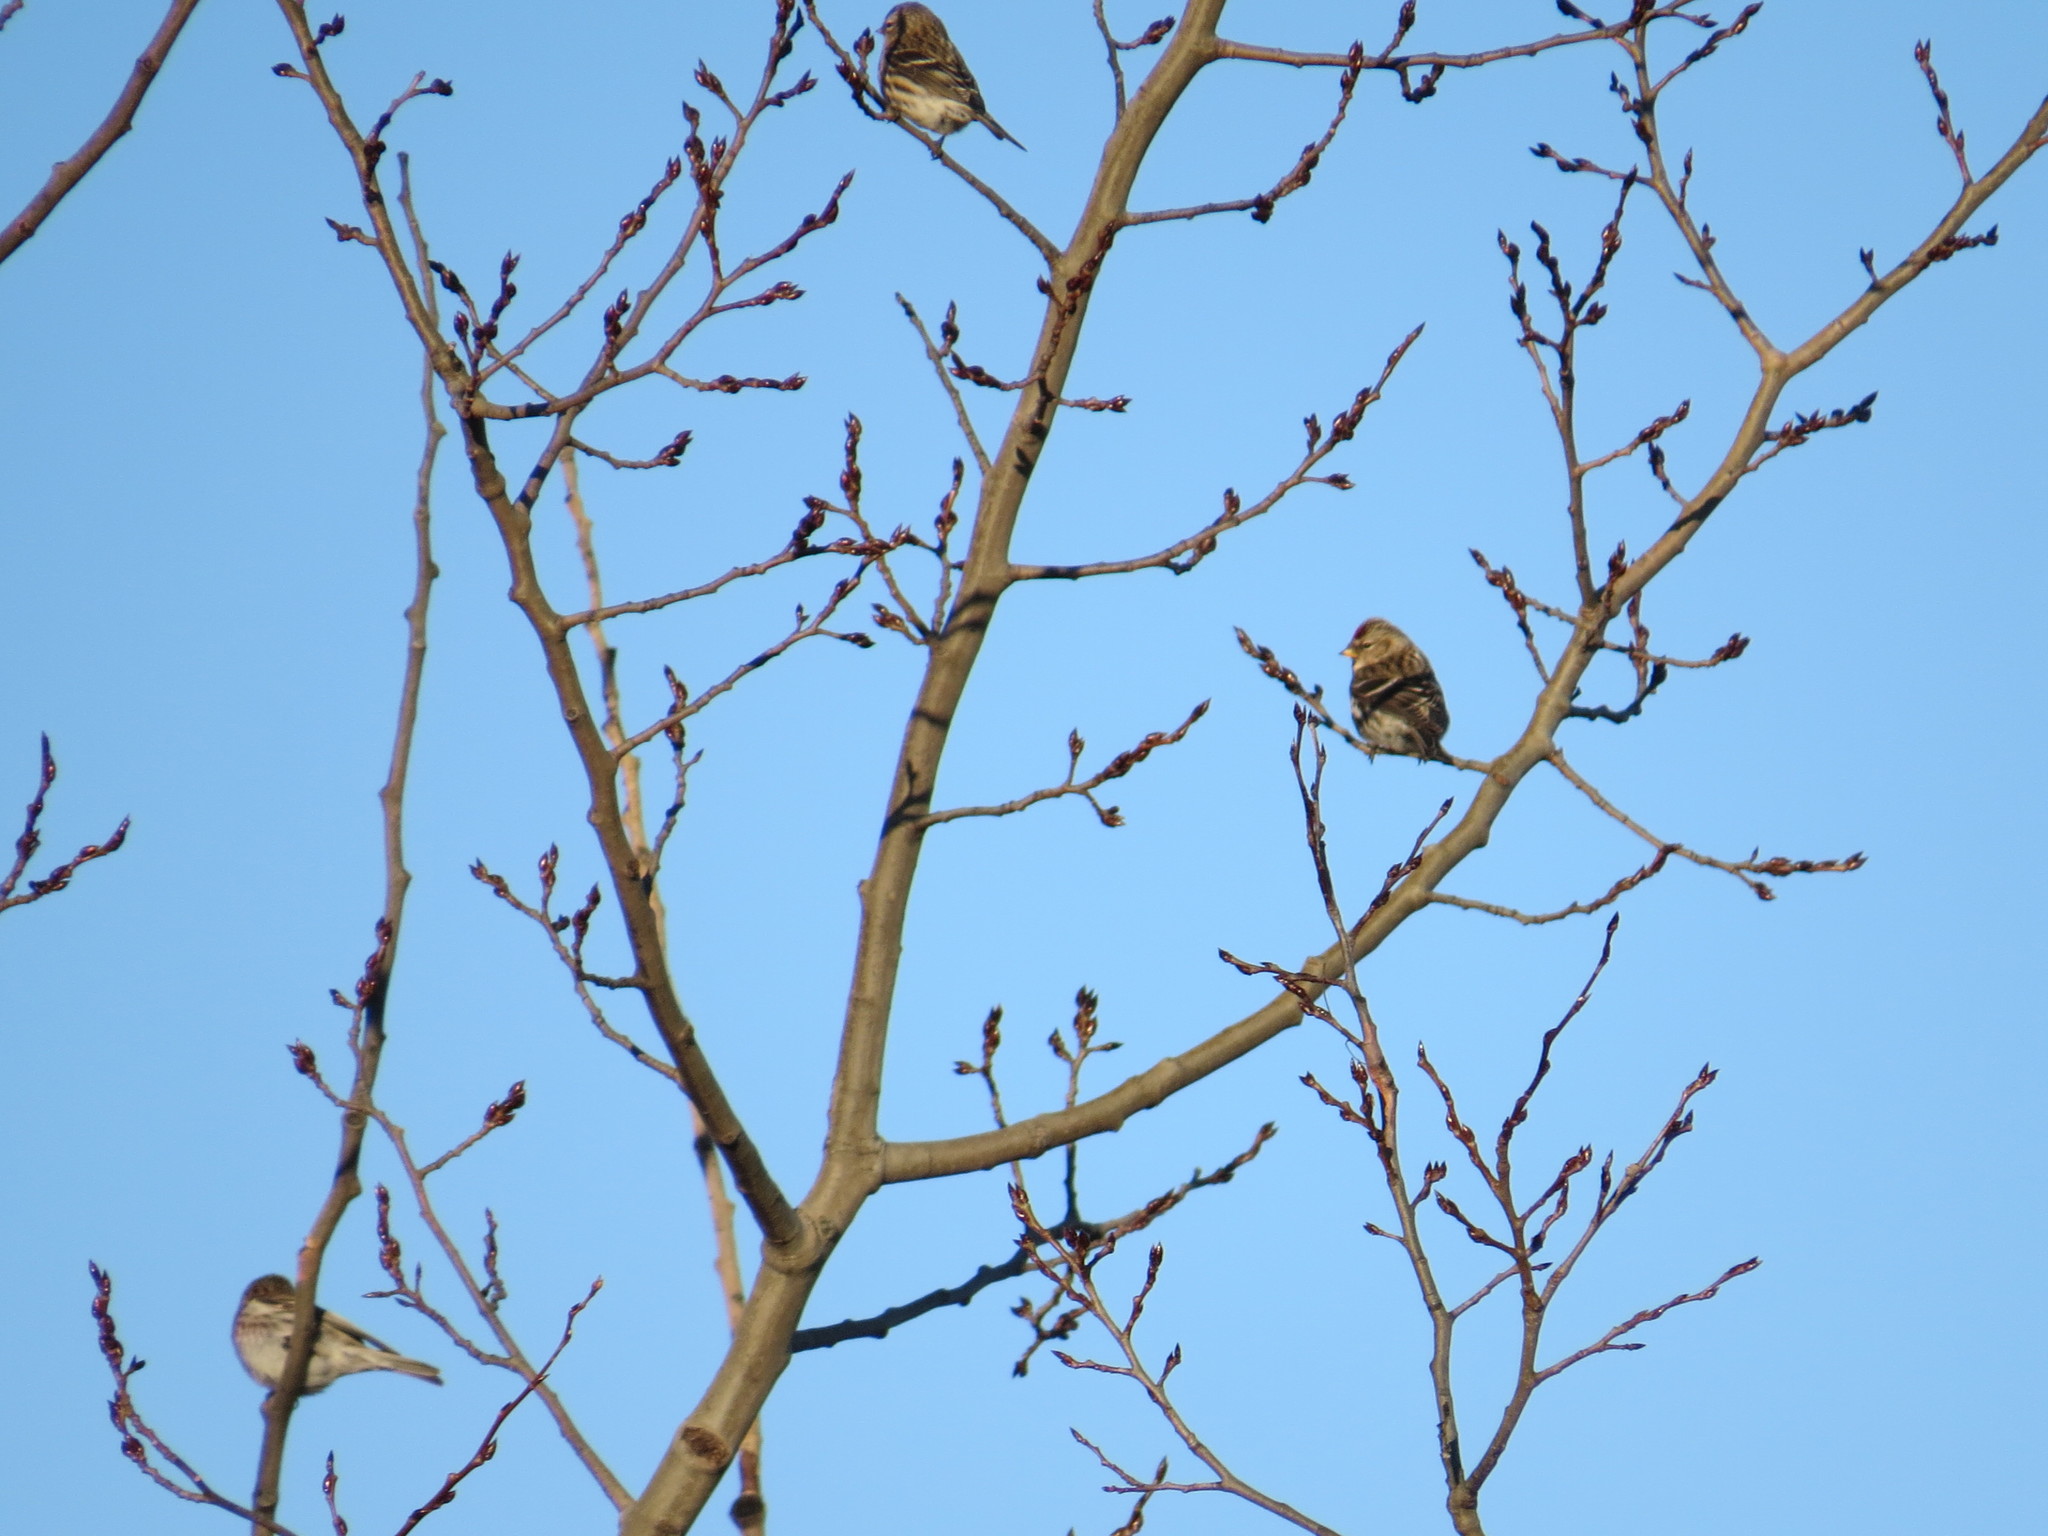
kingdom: Animalia
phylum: Chordata
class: Aves
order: Passeriformes
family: Fringillidae
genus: Acanthis
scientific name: Acanthis flammea
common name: Common redpoll
